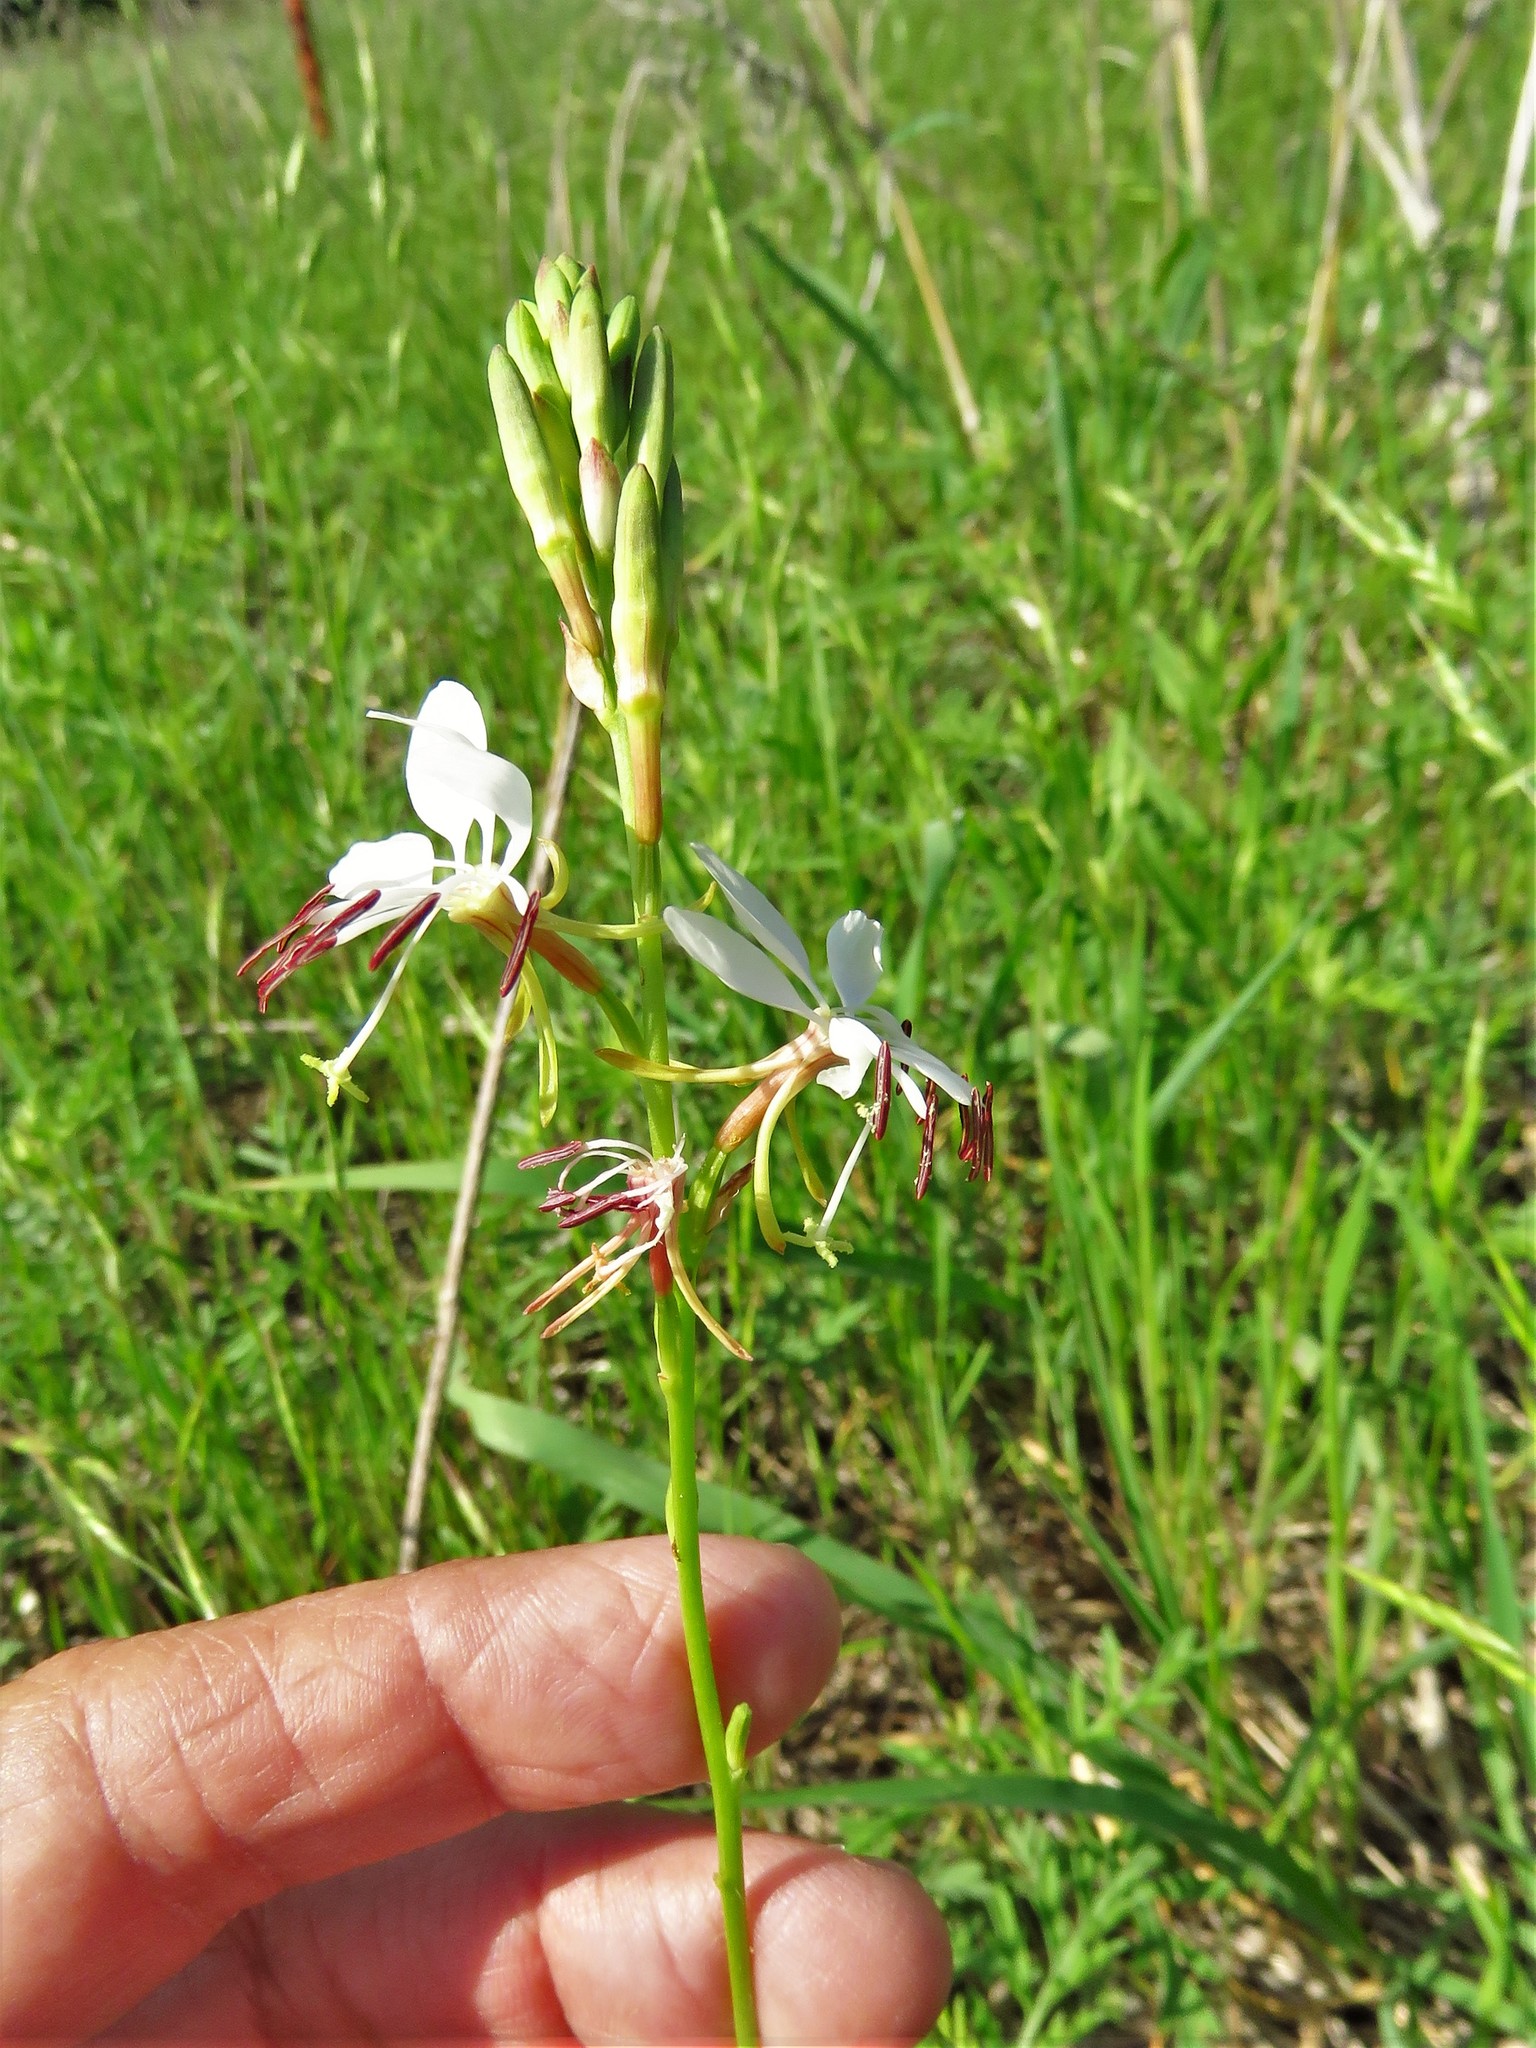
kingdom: Plantae
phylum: Tracheophyta
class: Magnoliopsida
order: Myrtales
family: Onagraceae
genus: Oenothera
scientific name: Oenothera suffulta
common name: Kisses
